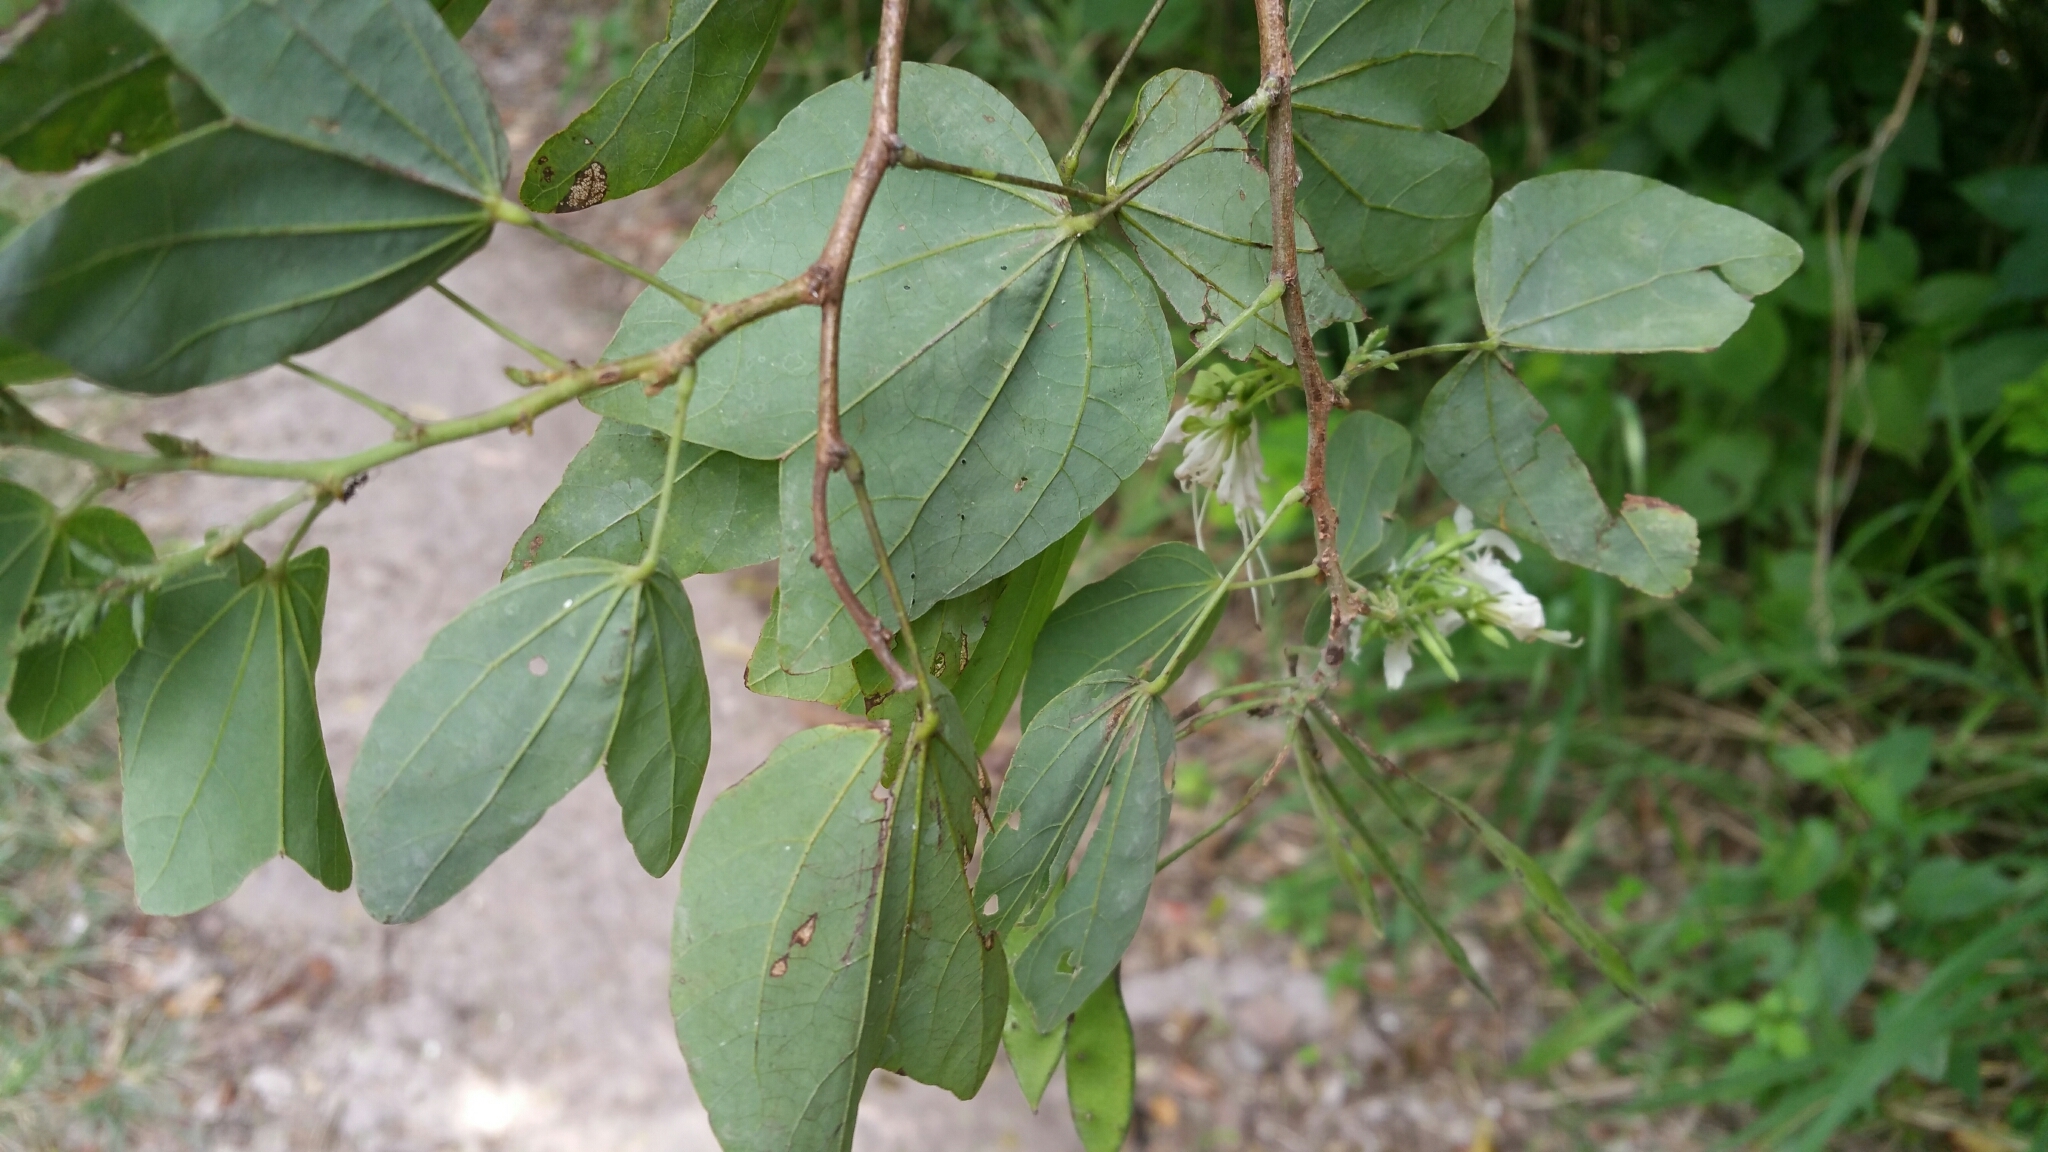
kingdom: Plantae
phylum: Tracheophyta
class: Magnoliopsida
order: Fabales
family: Fabaceae
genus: Bauhinia
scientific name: Bauhinia divaricata
